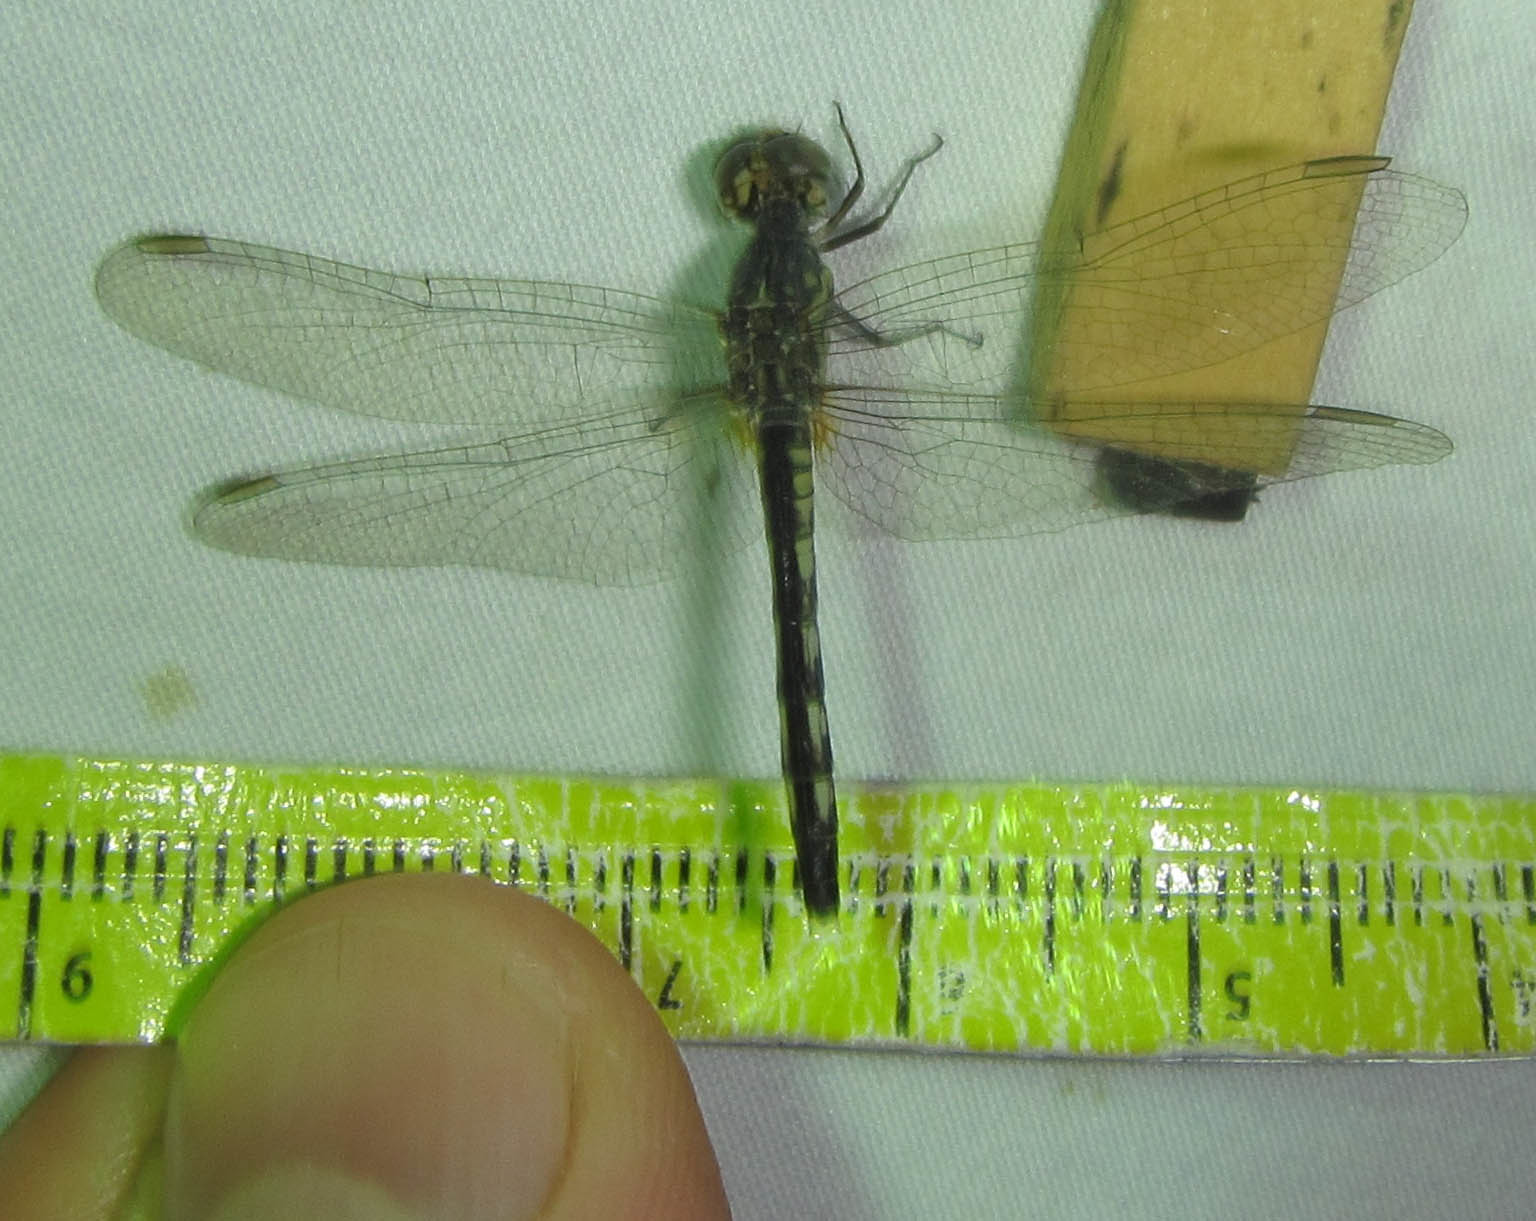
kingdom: Animalia
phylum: Arthropoda
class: Insecta
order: Odonata
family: Libellulidae
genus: Diplacodes
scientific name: Diplacodes lefebvrii
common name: Black percher
